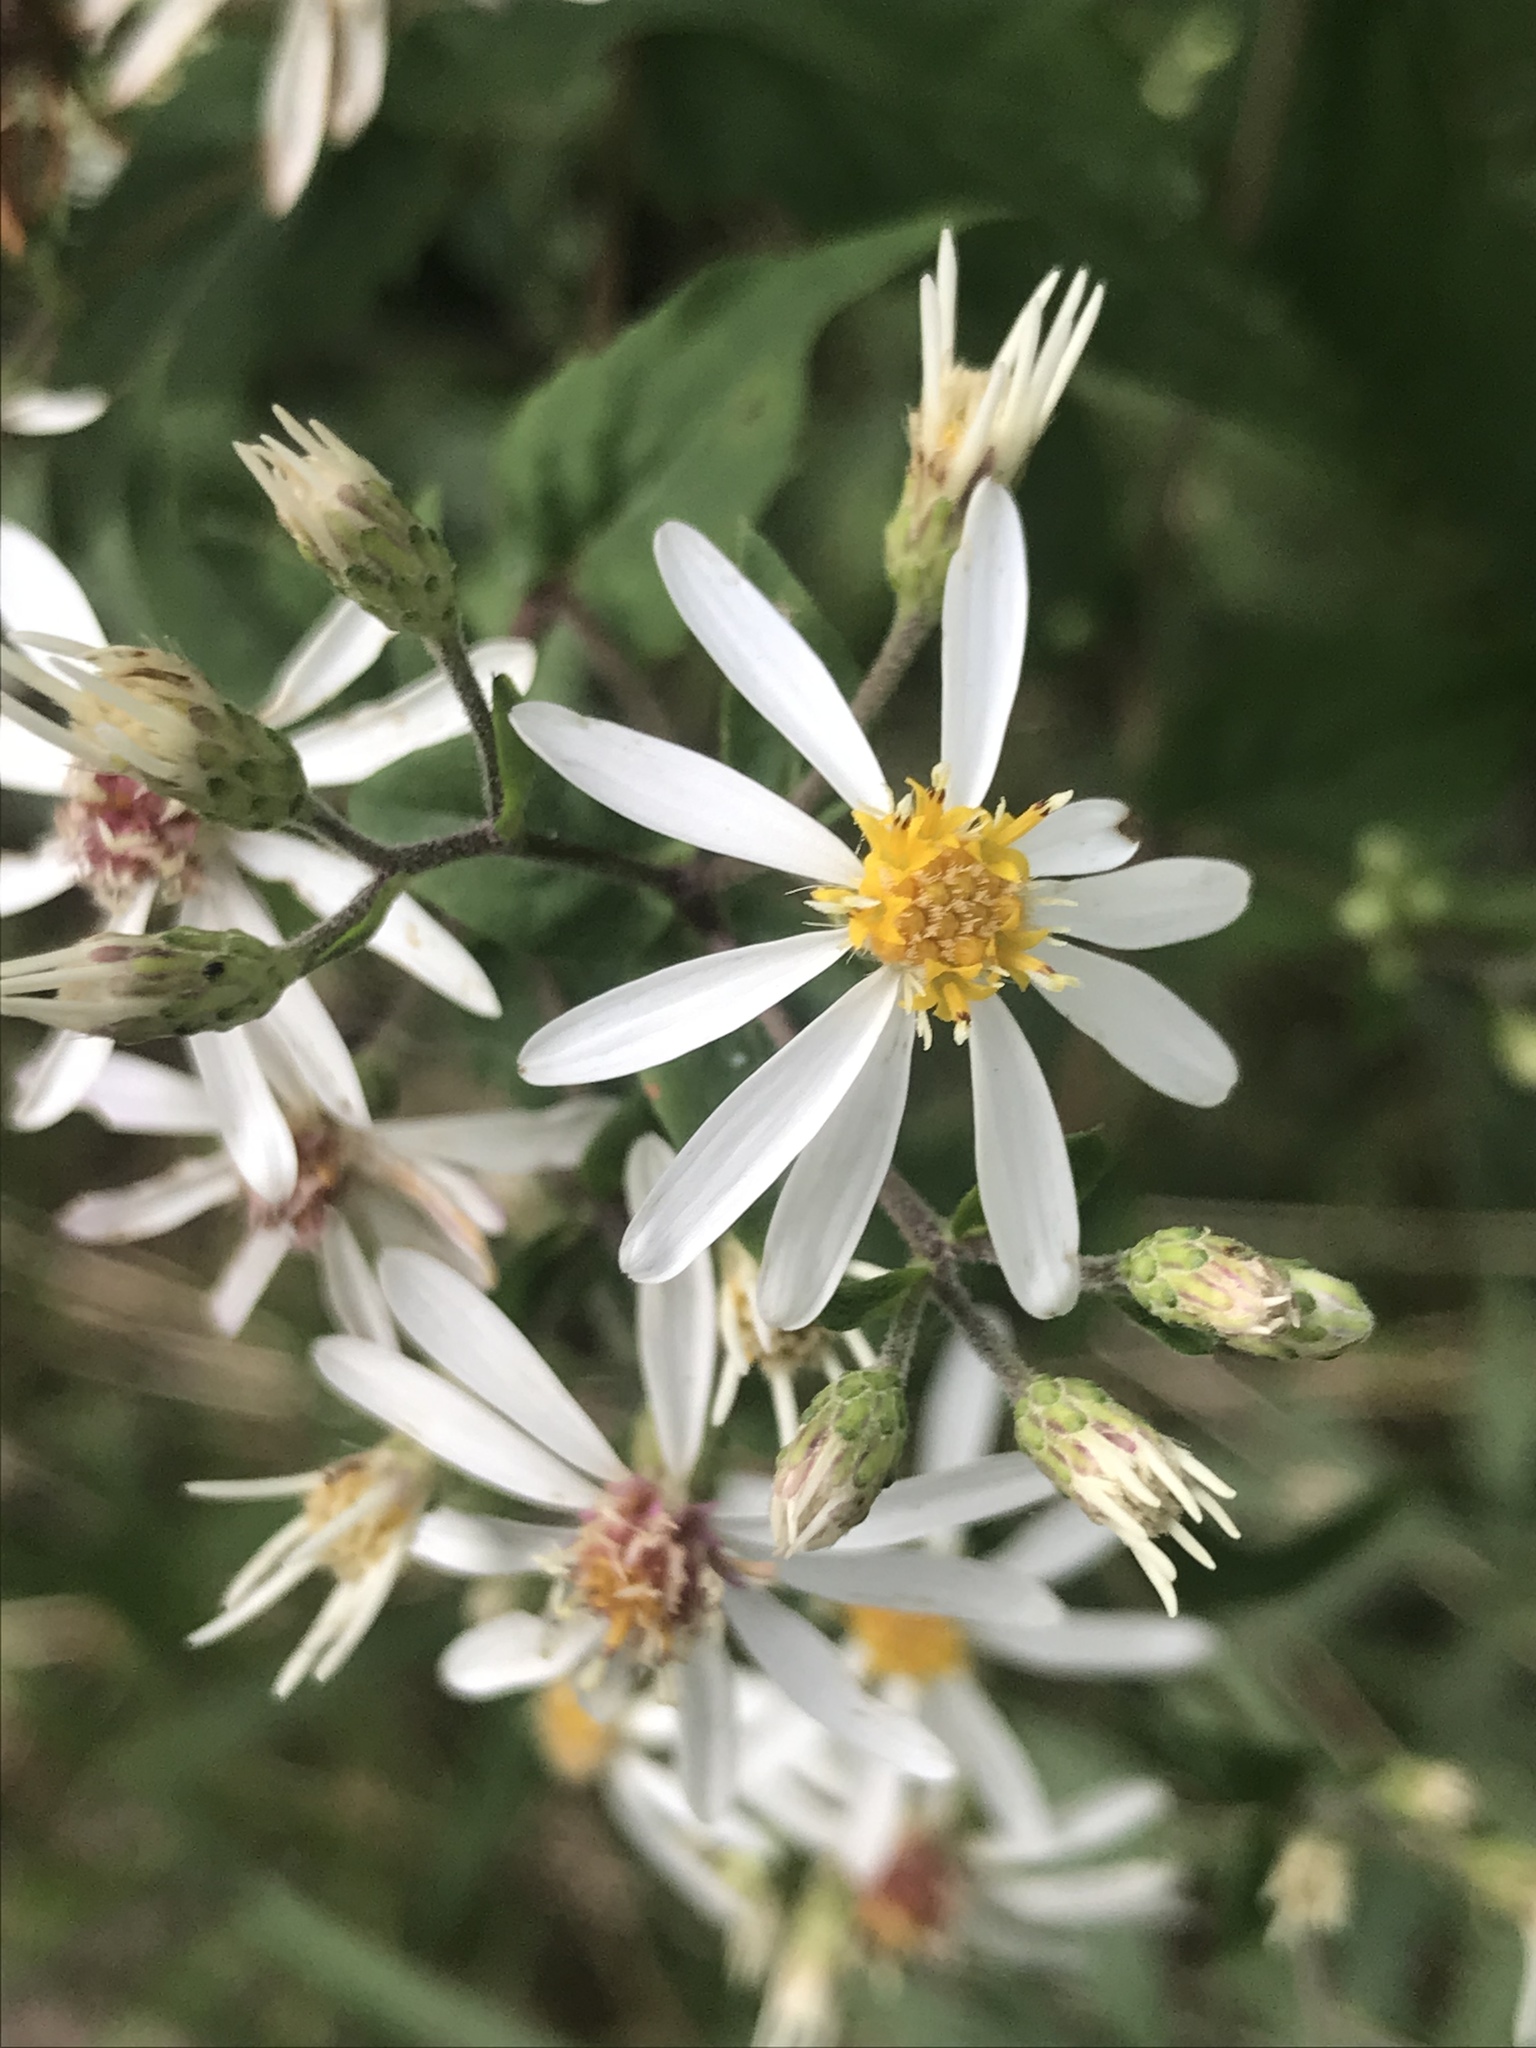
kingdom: Plantae
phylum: Tracheophyta
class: Magnoliopsida
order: Asterales
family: Asteraceae
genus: Eurybia
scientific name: Eurybia divaricata
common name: White wood aster
